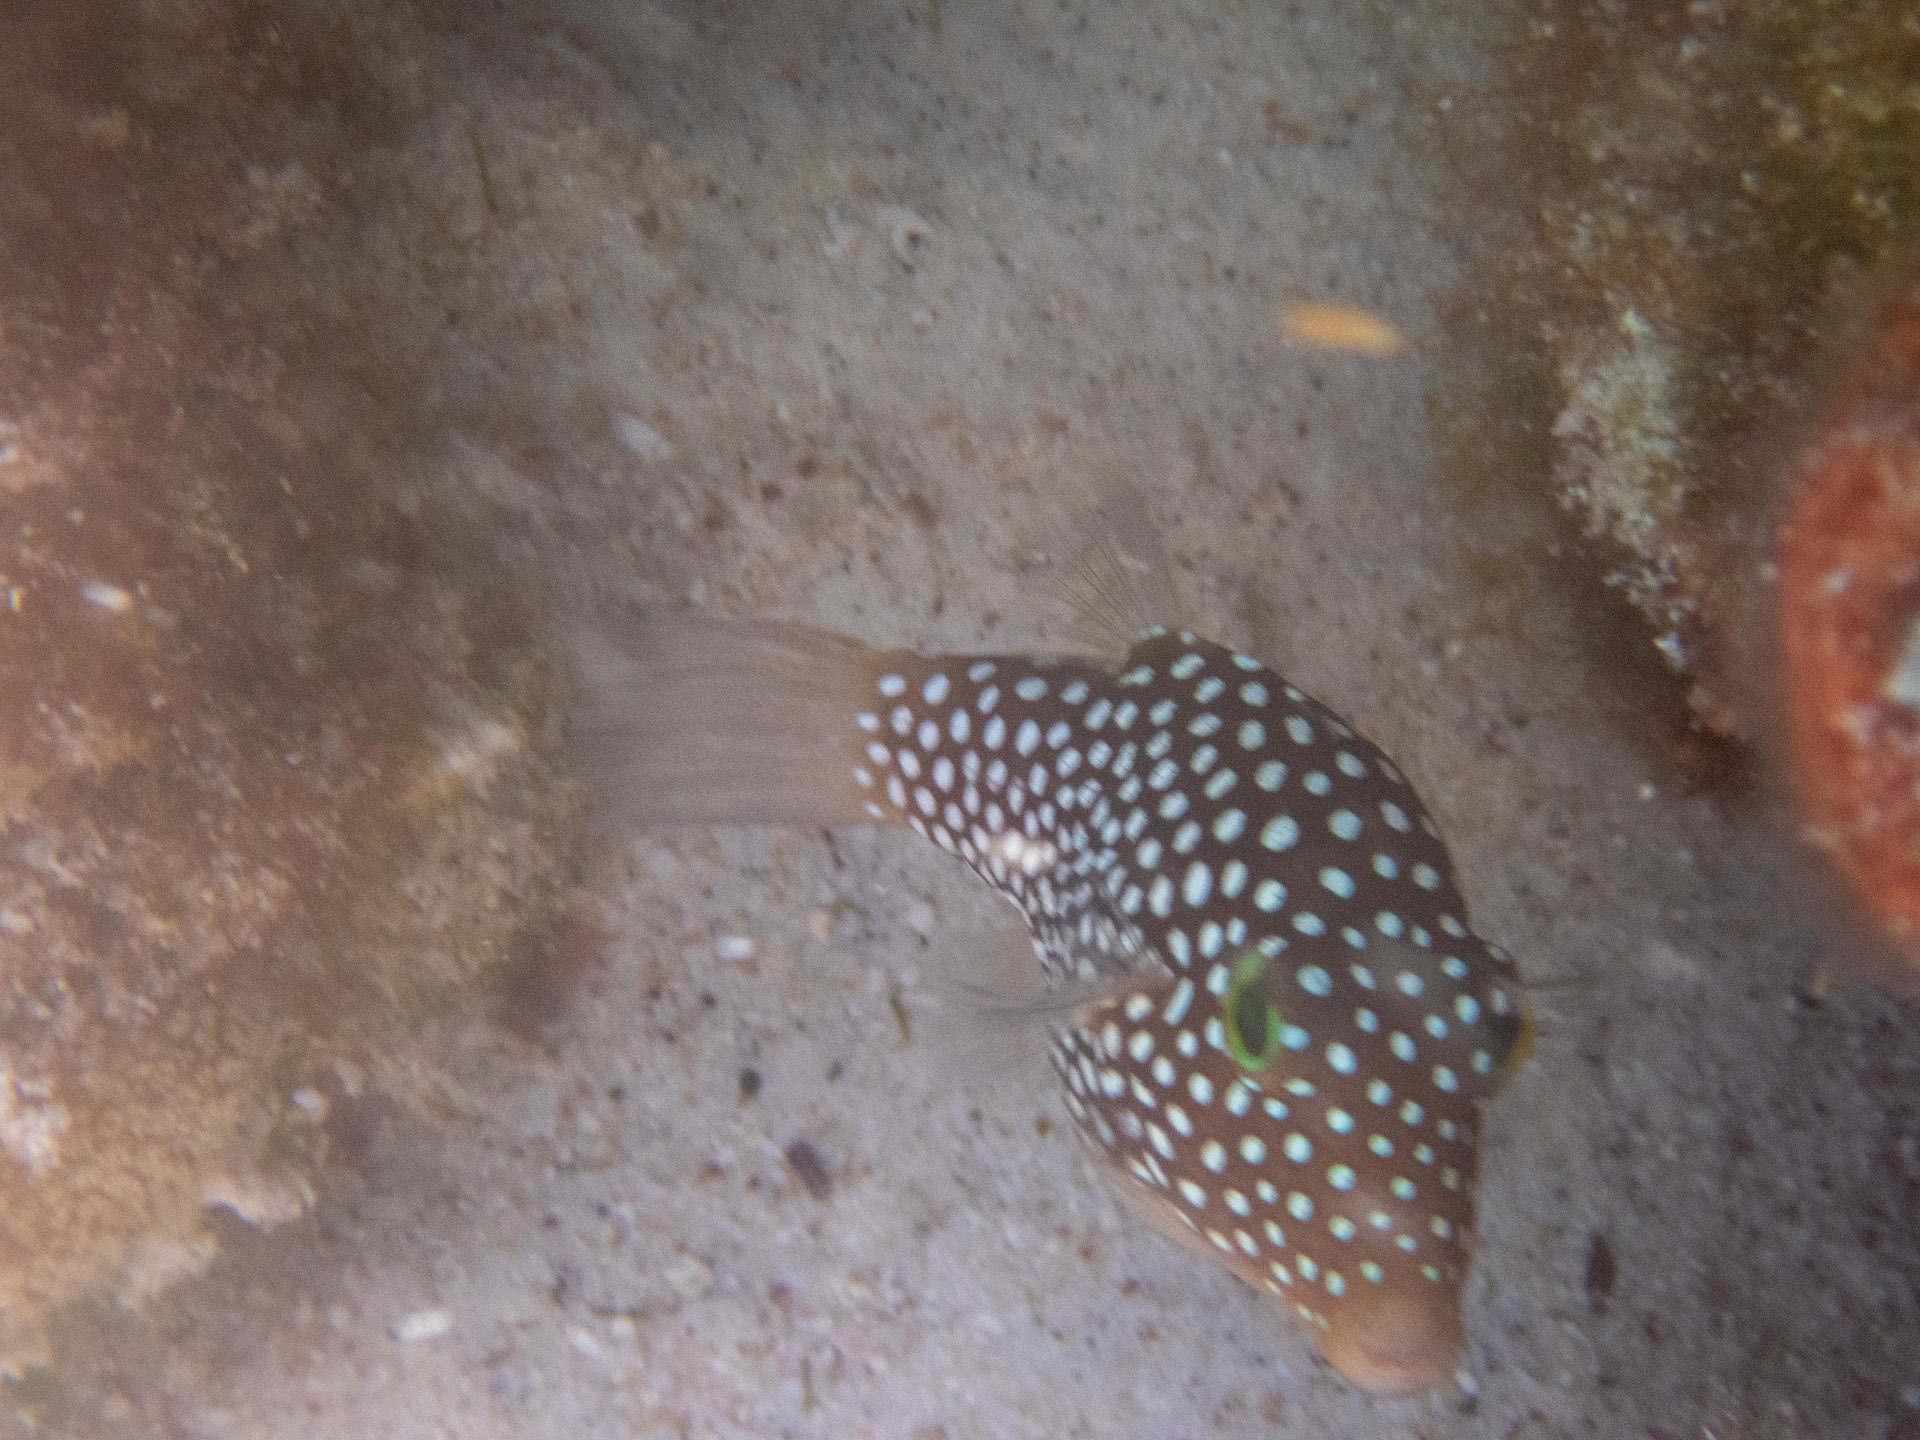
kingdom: Animalia
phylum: Chordata
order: Tetraodontiformes
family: Tetraodontidae
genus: Canthigaster
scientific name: Canthigaster jactator
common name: Hawaiian whitespotted toby
